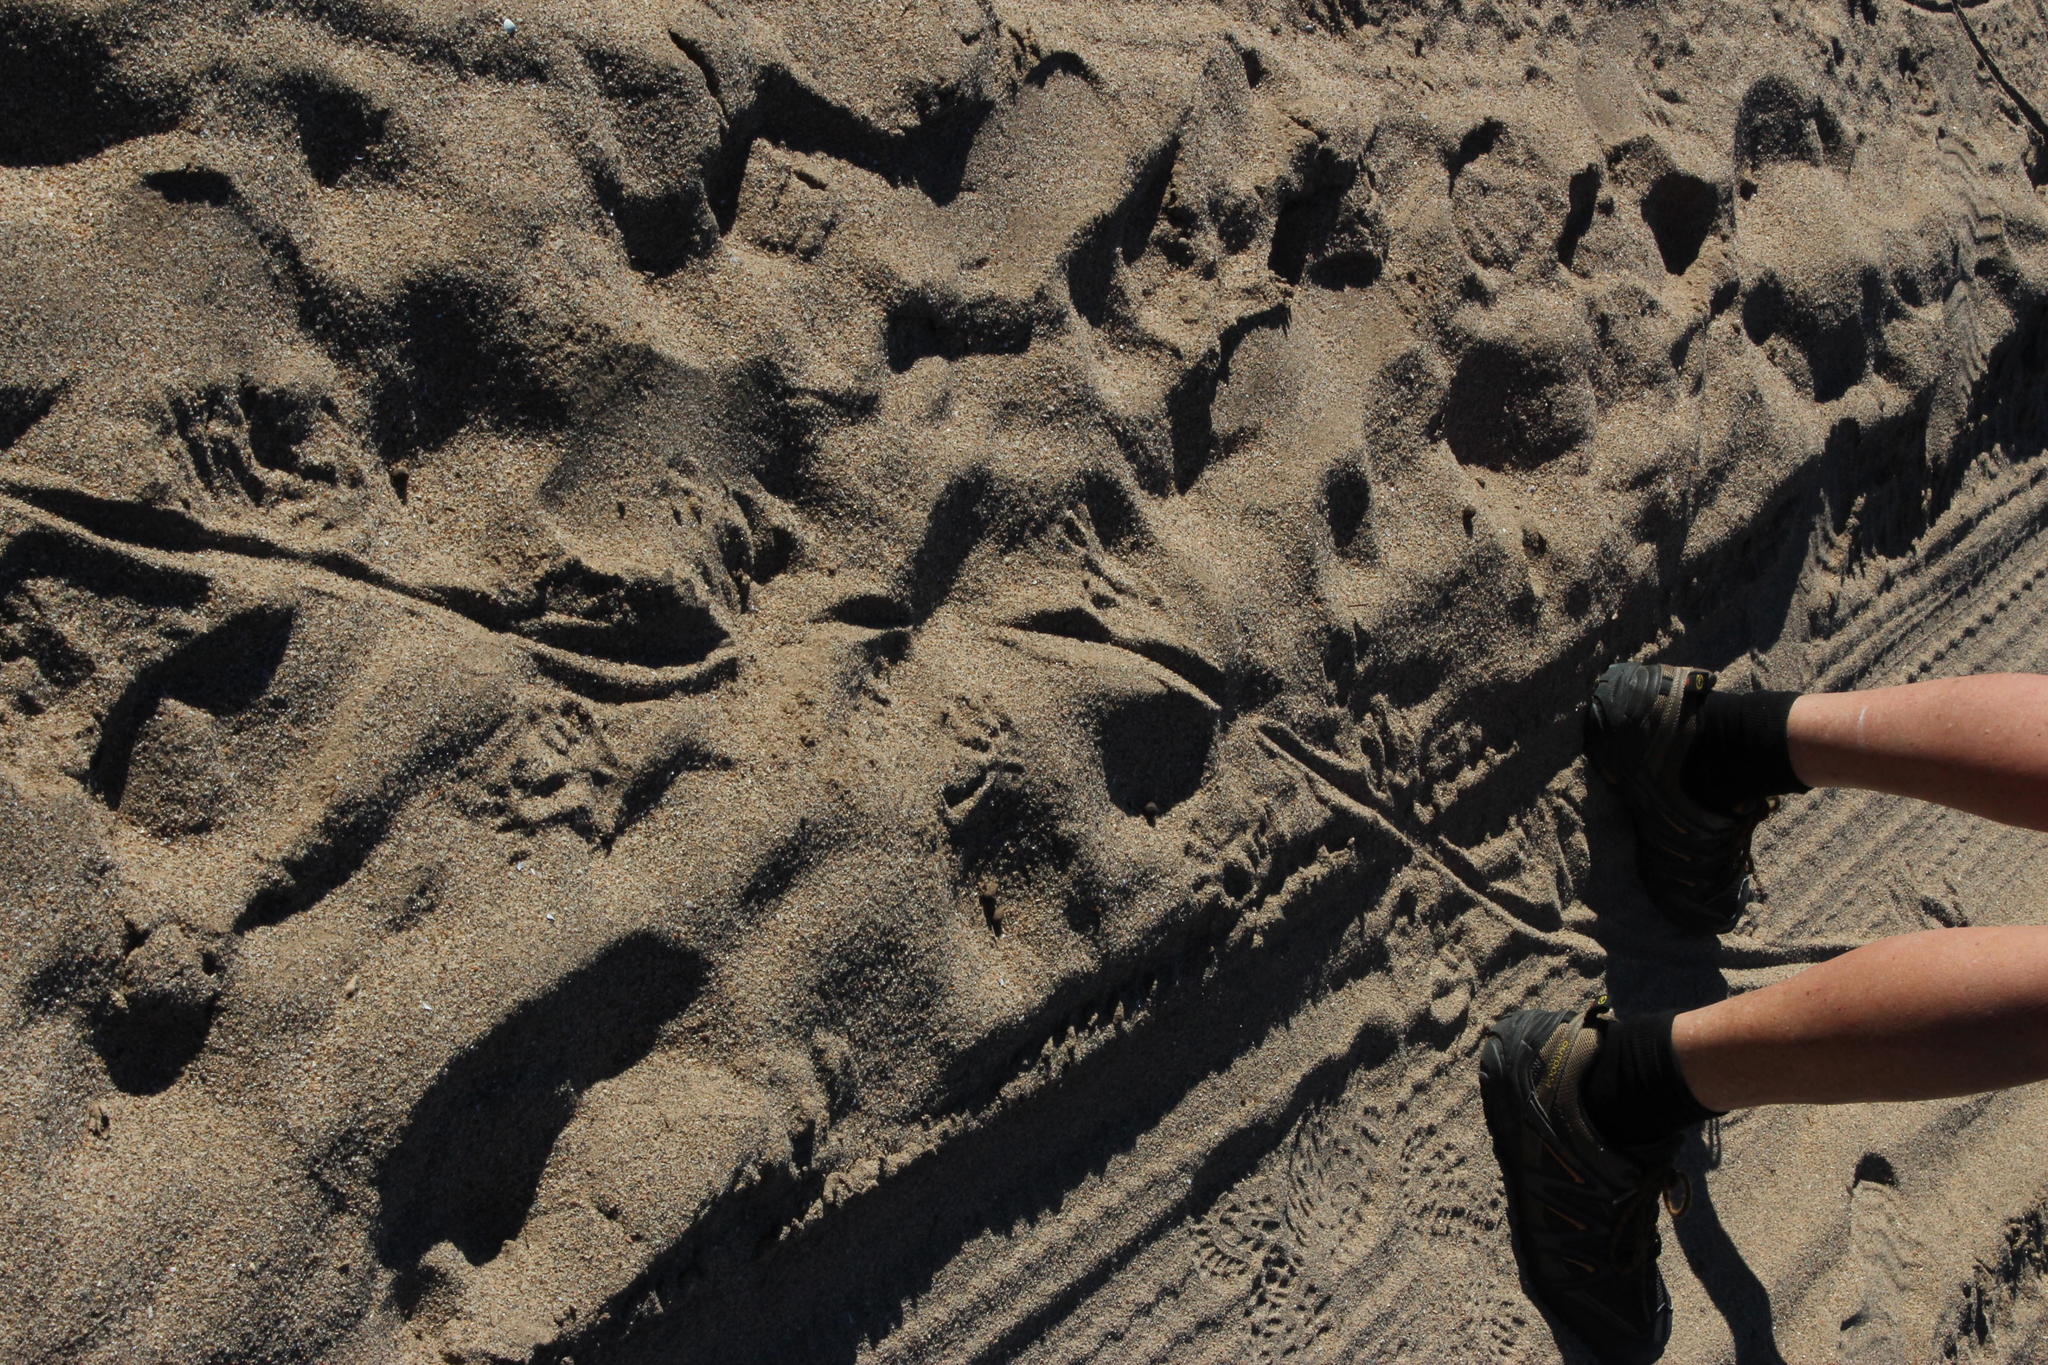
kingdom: Animalia
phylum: Chordata
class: Squamata
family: Varanidae
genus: Varanus
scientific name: Varanus niloticus
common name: Nile monitor
